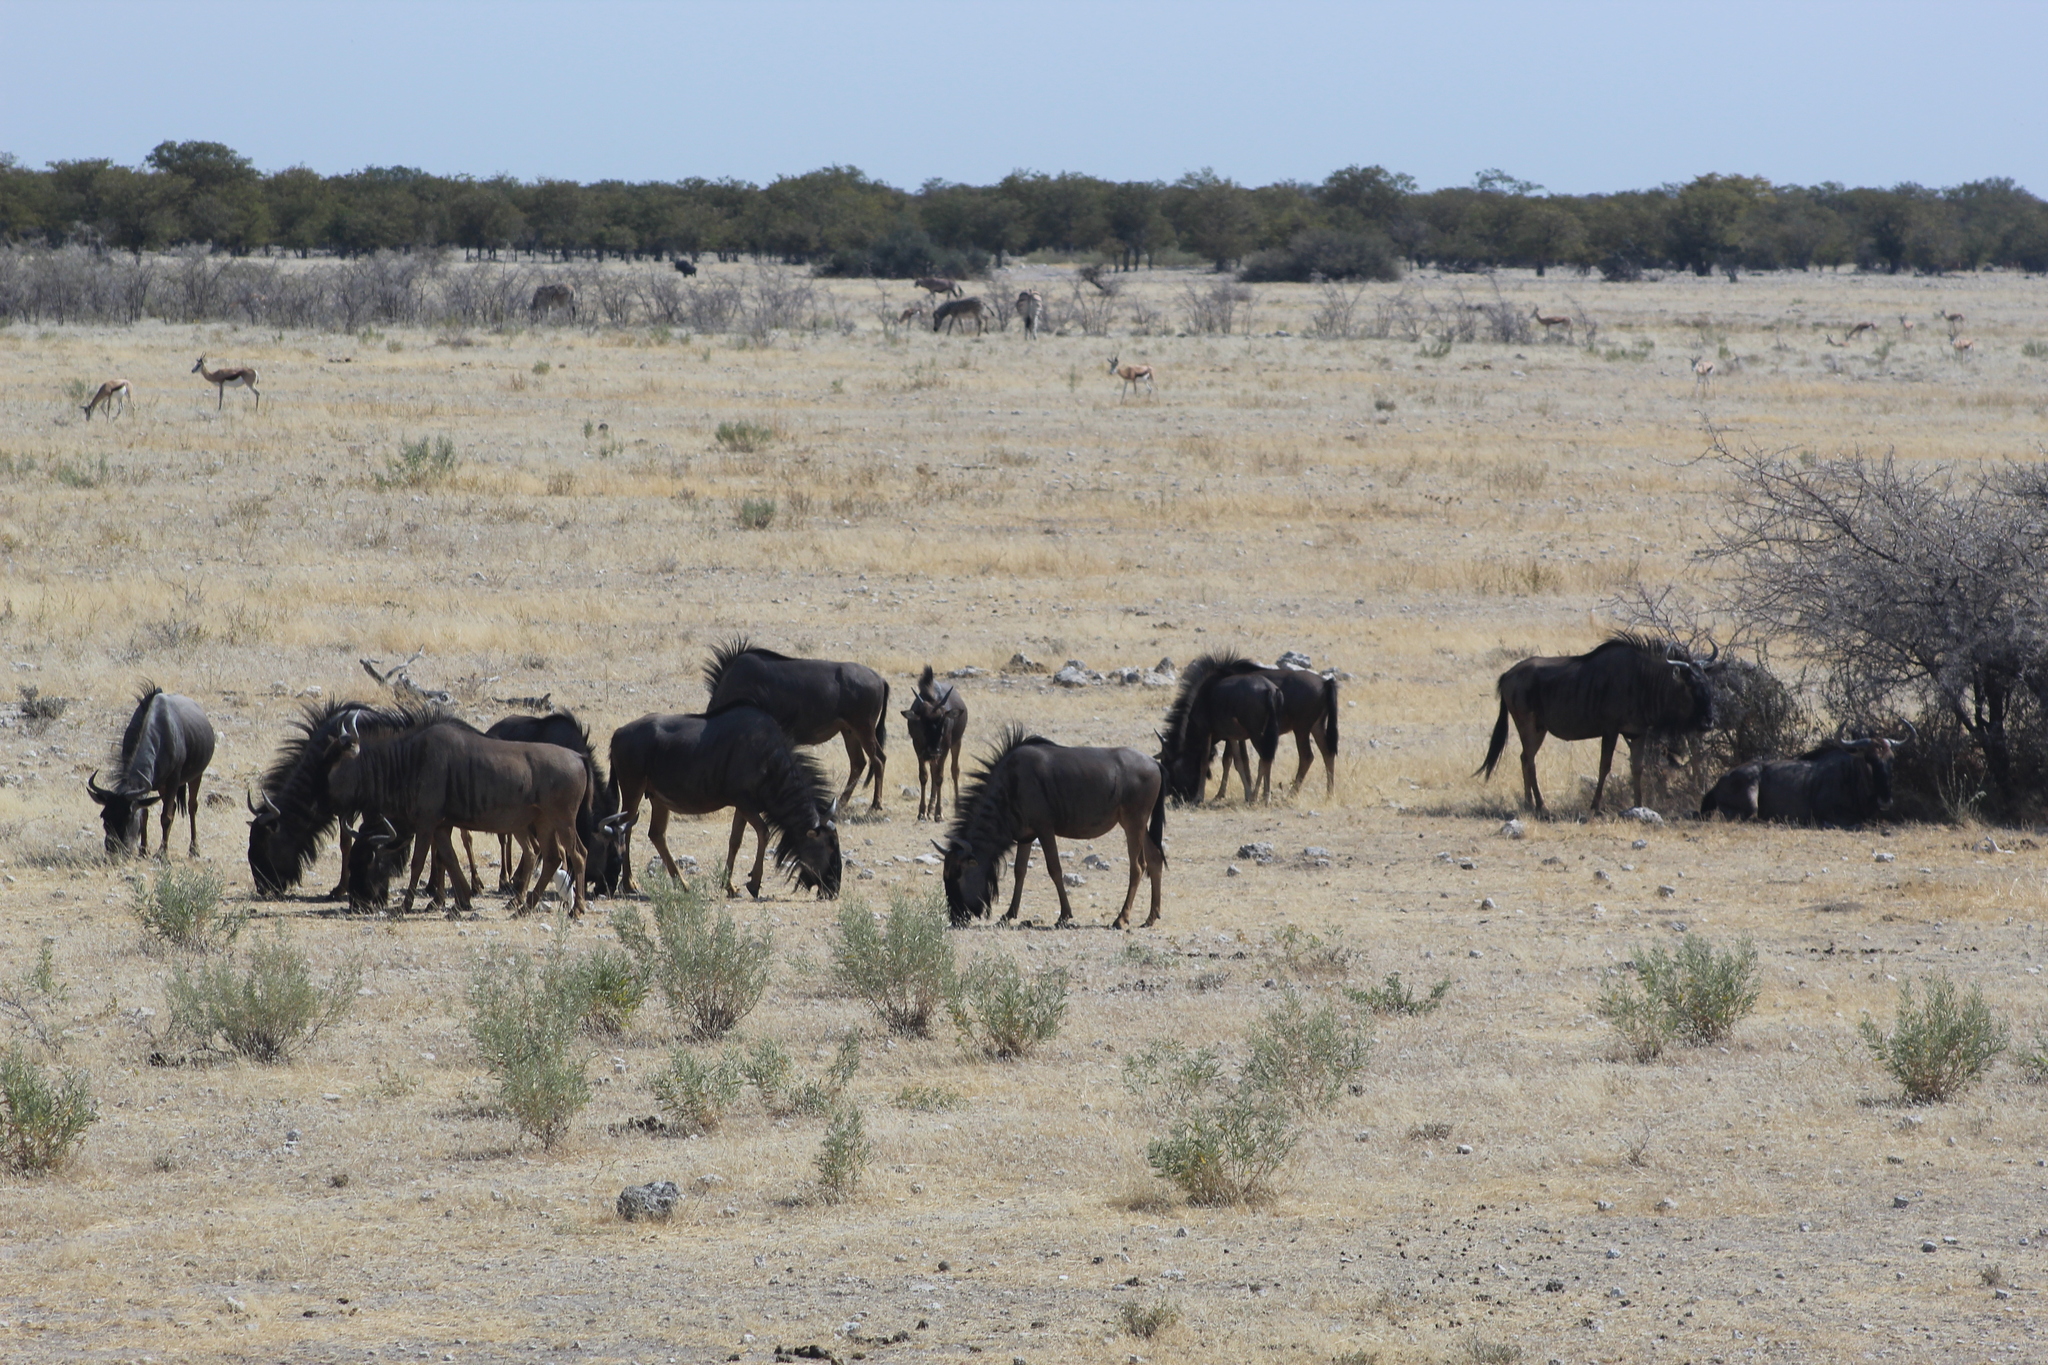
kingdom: Animalia
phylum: Chordata
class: Mammalia
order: Artiodactyla
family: Bovidae
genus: Connochaetes
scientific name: Connochaetes taurinus
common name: Blue wildebeest
